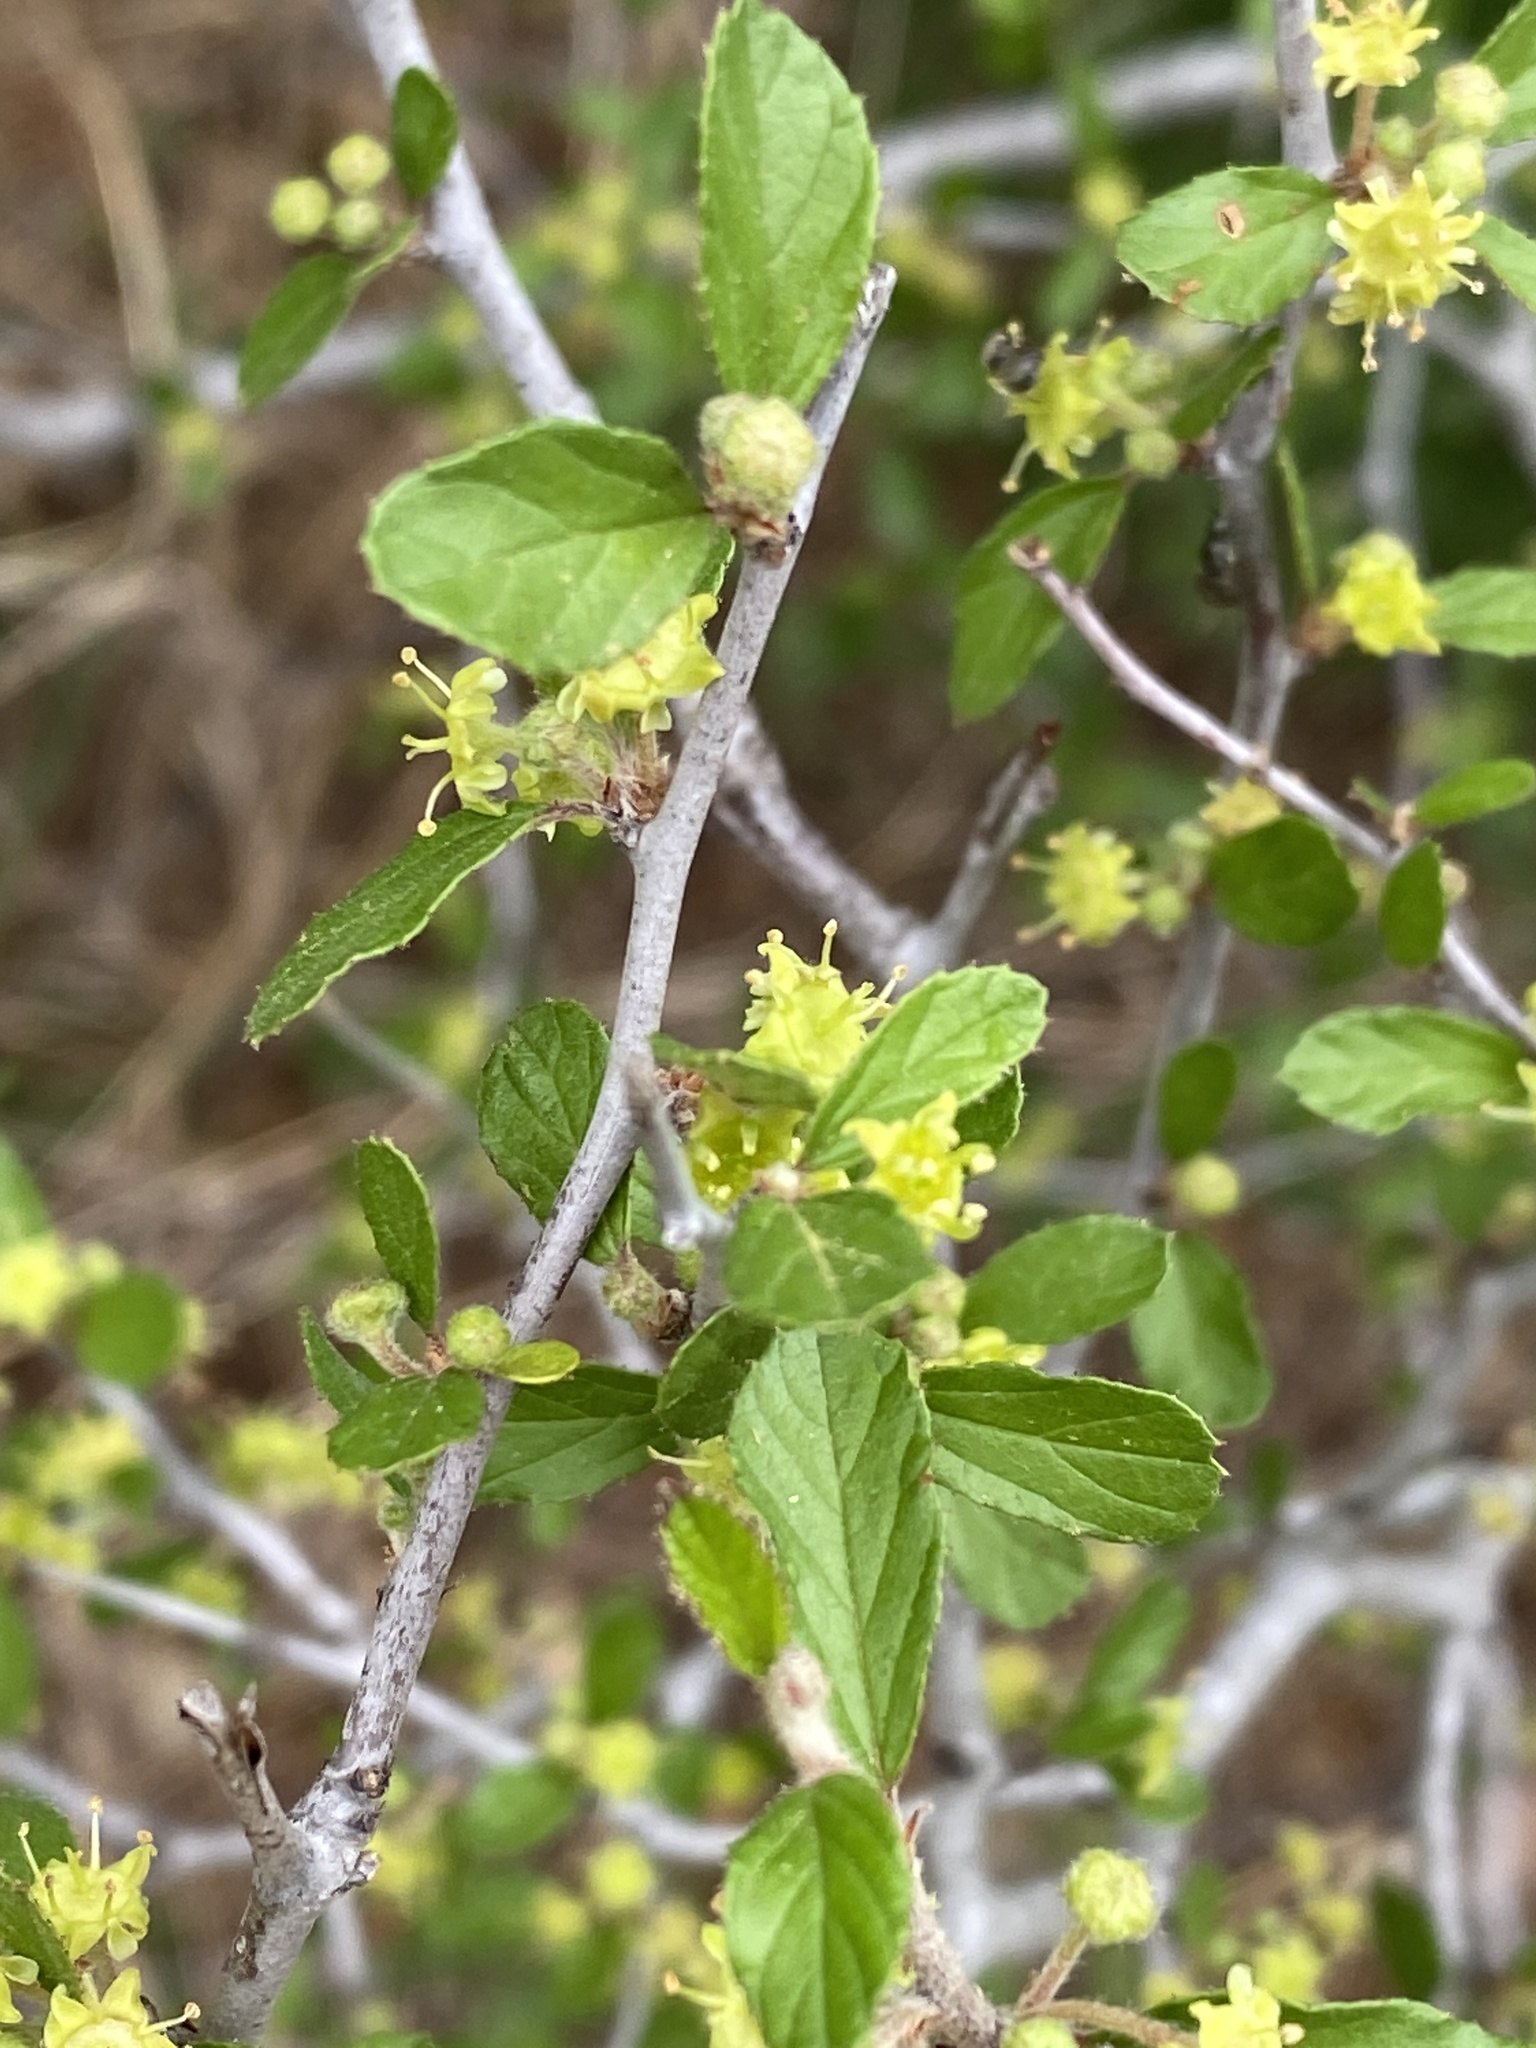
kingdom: Plantae
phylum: Tracheophyta
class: Magnoliopsida
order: Rosales
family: Rhamnaceae
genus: Colubrina
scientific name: Colubrina texensis
